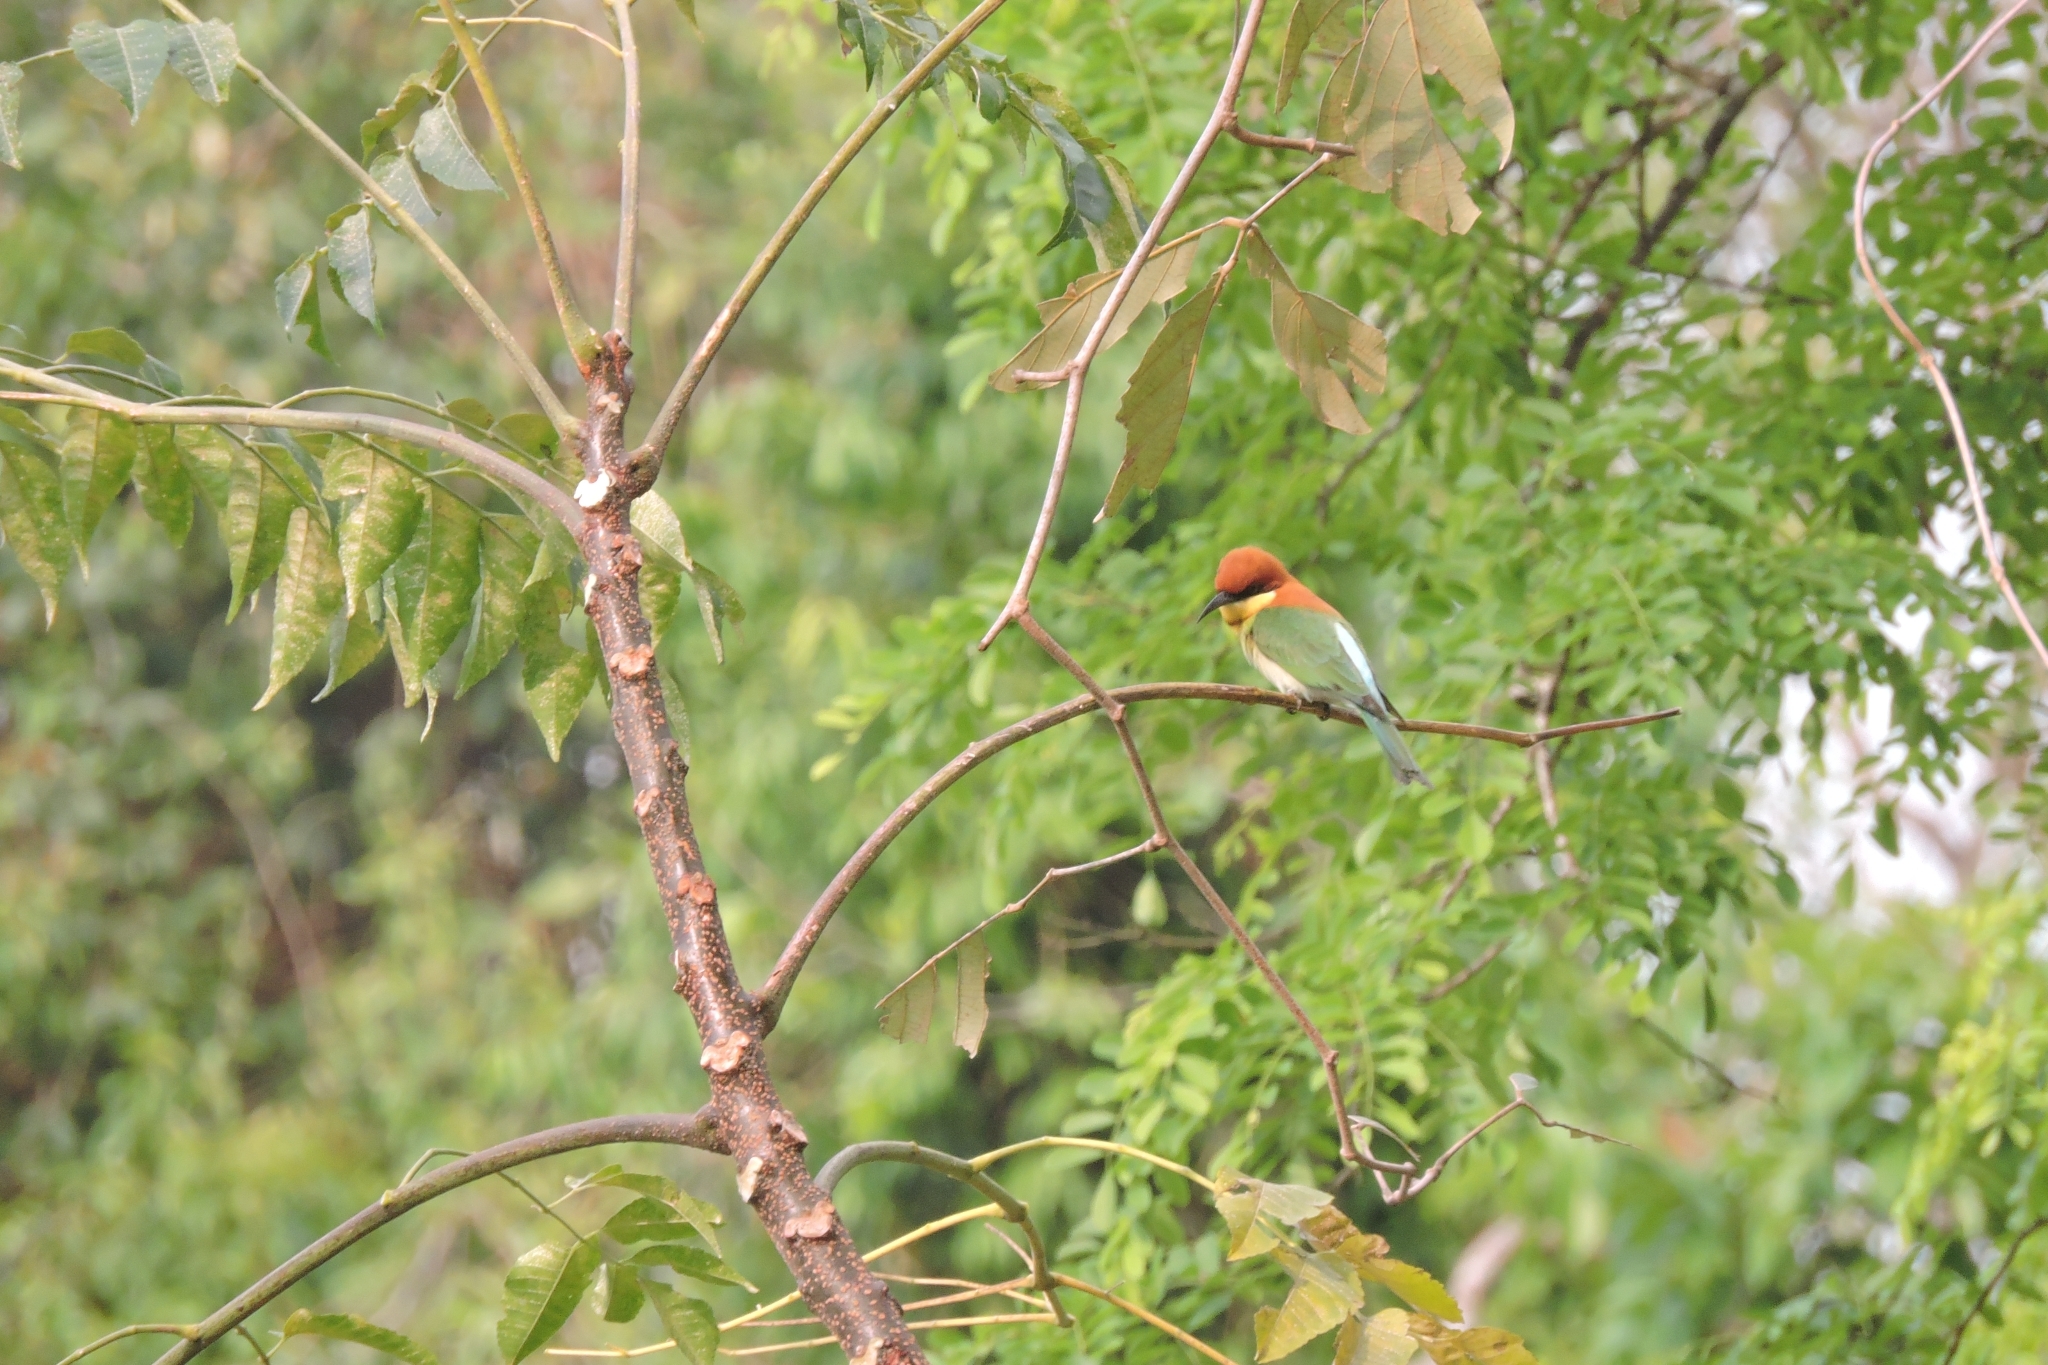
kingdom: Animalia
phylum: Chordata
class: Aves
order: Coraciiformes
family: Meropidae
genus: Merops
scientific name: Merops leschenaulti
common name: Chestnut-headed bee-eater
